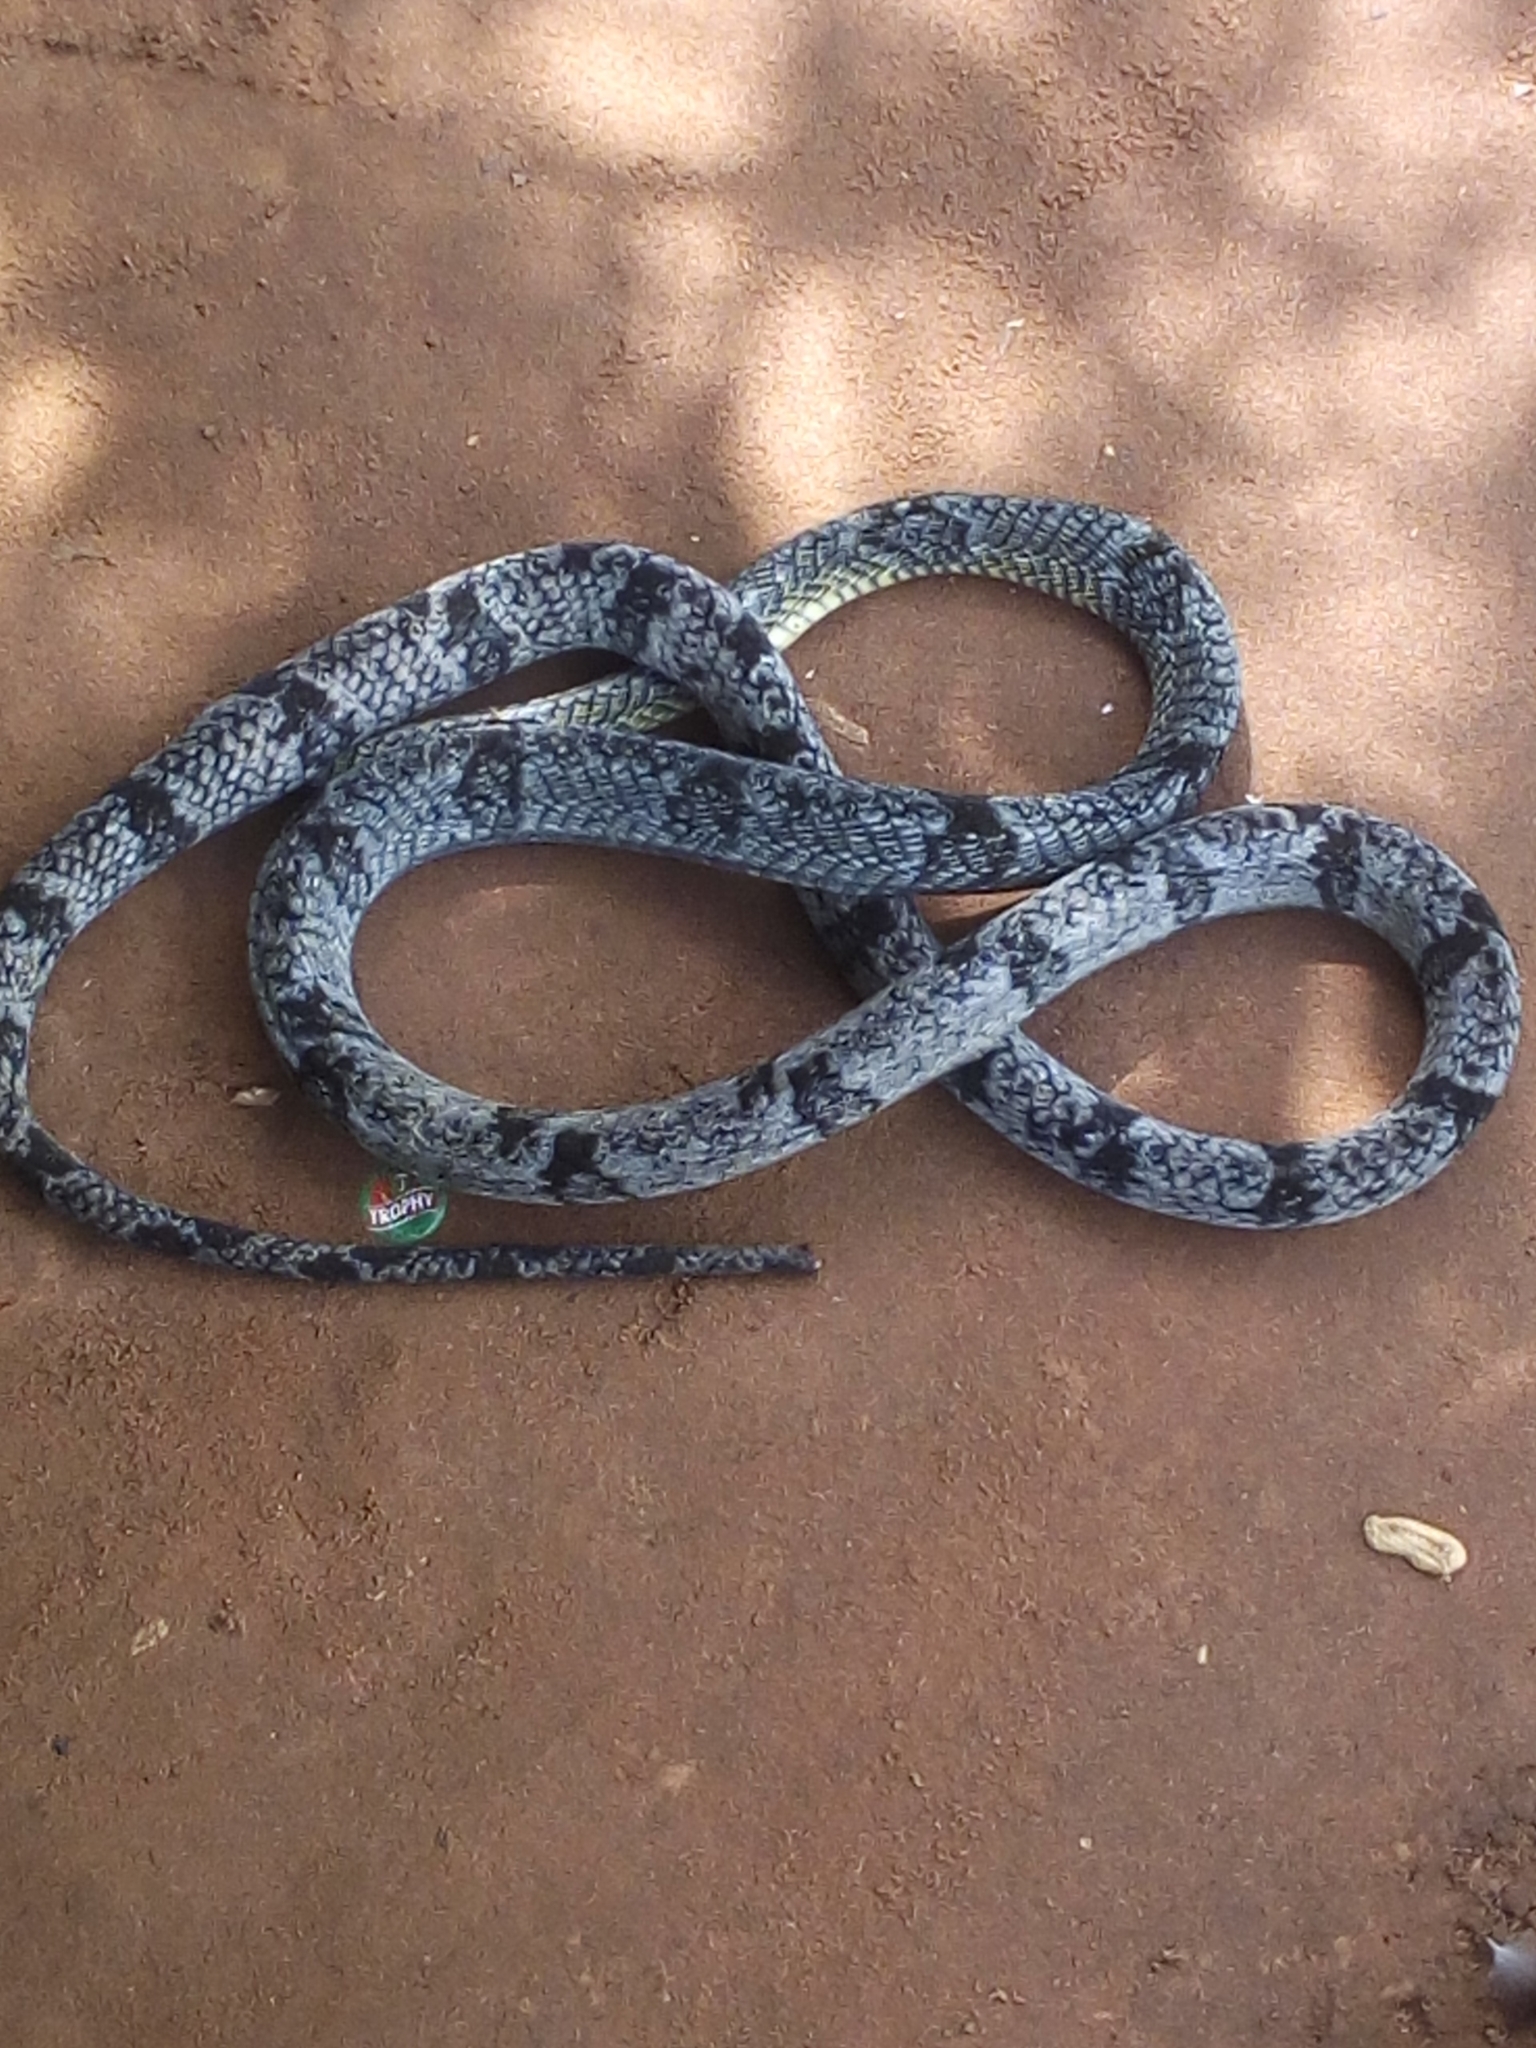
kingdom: Animalia
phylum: Chordata
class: Squamata
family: Colubridae
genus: Toxicodryas
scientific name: Toxicodryas blandingii
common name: Blandings tree snake
